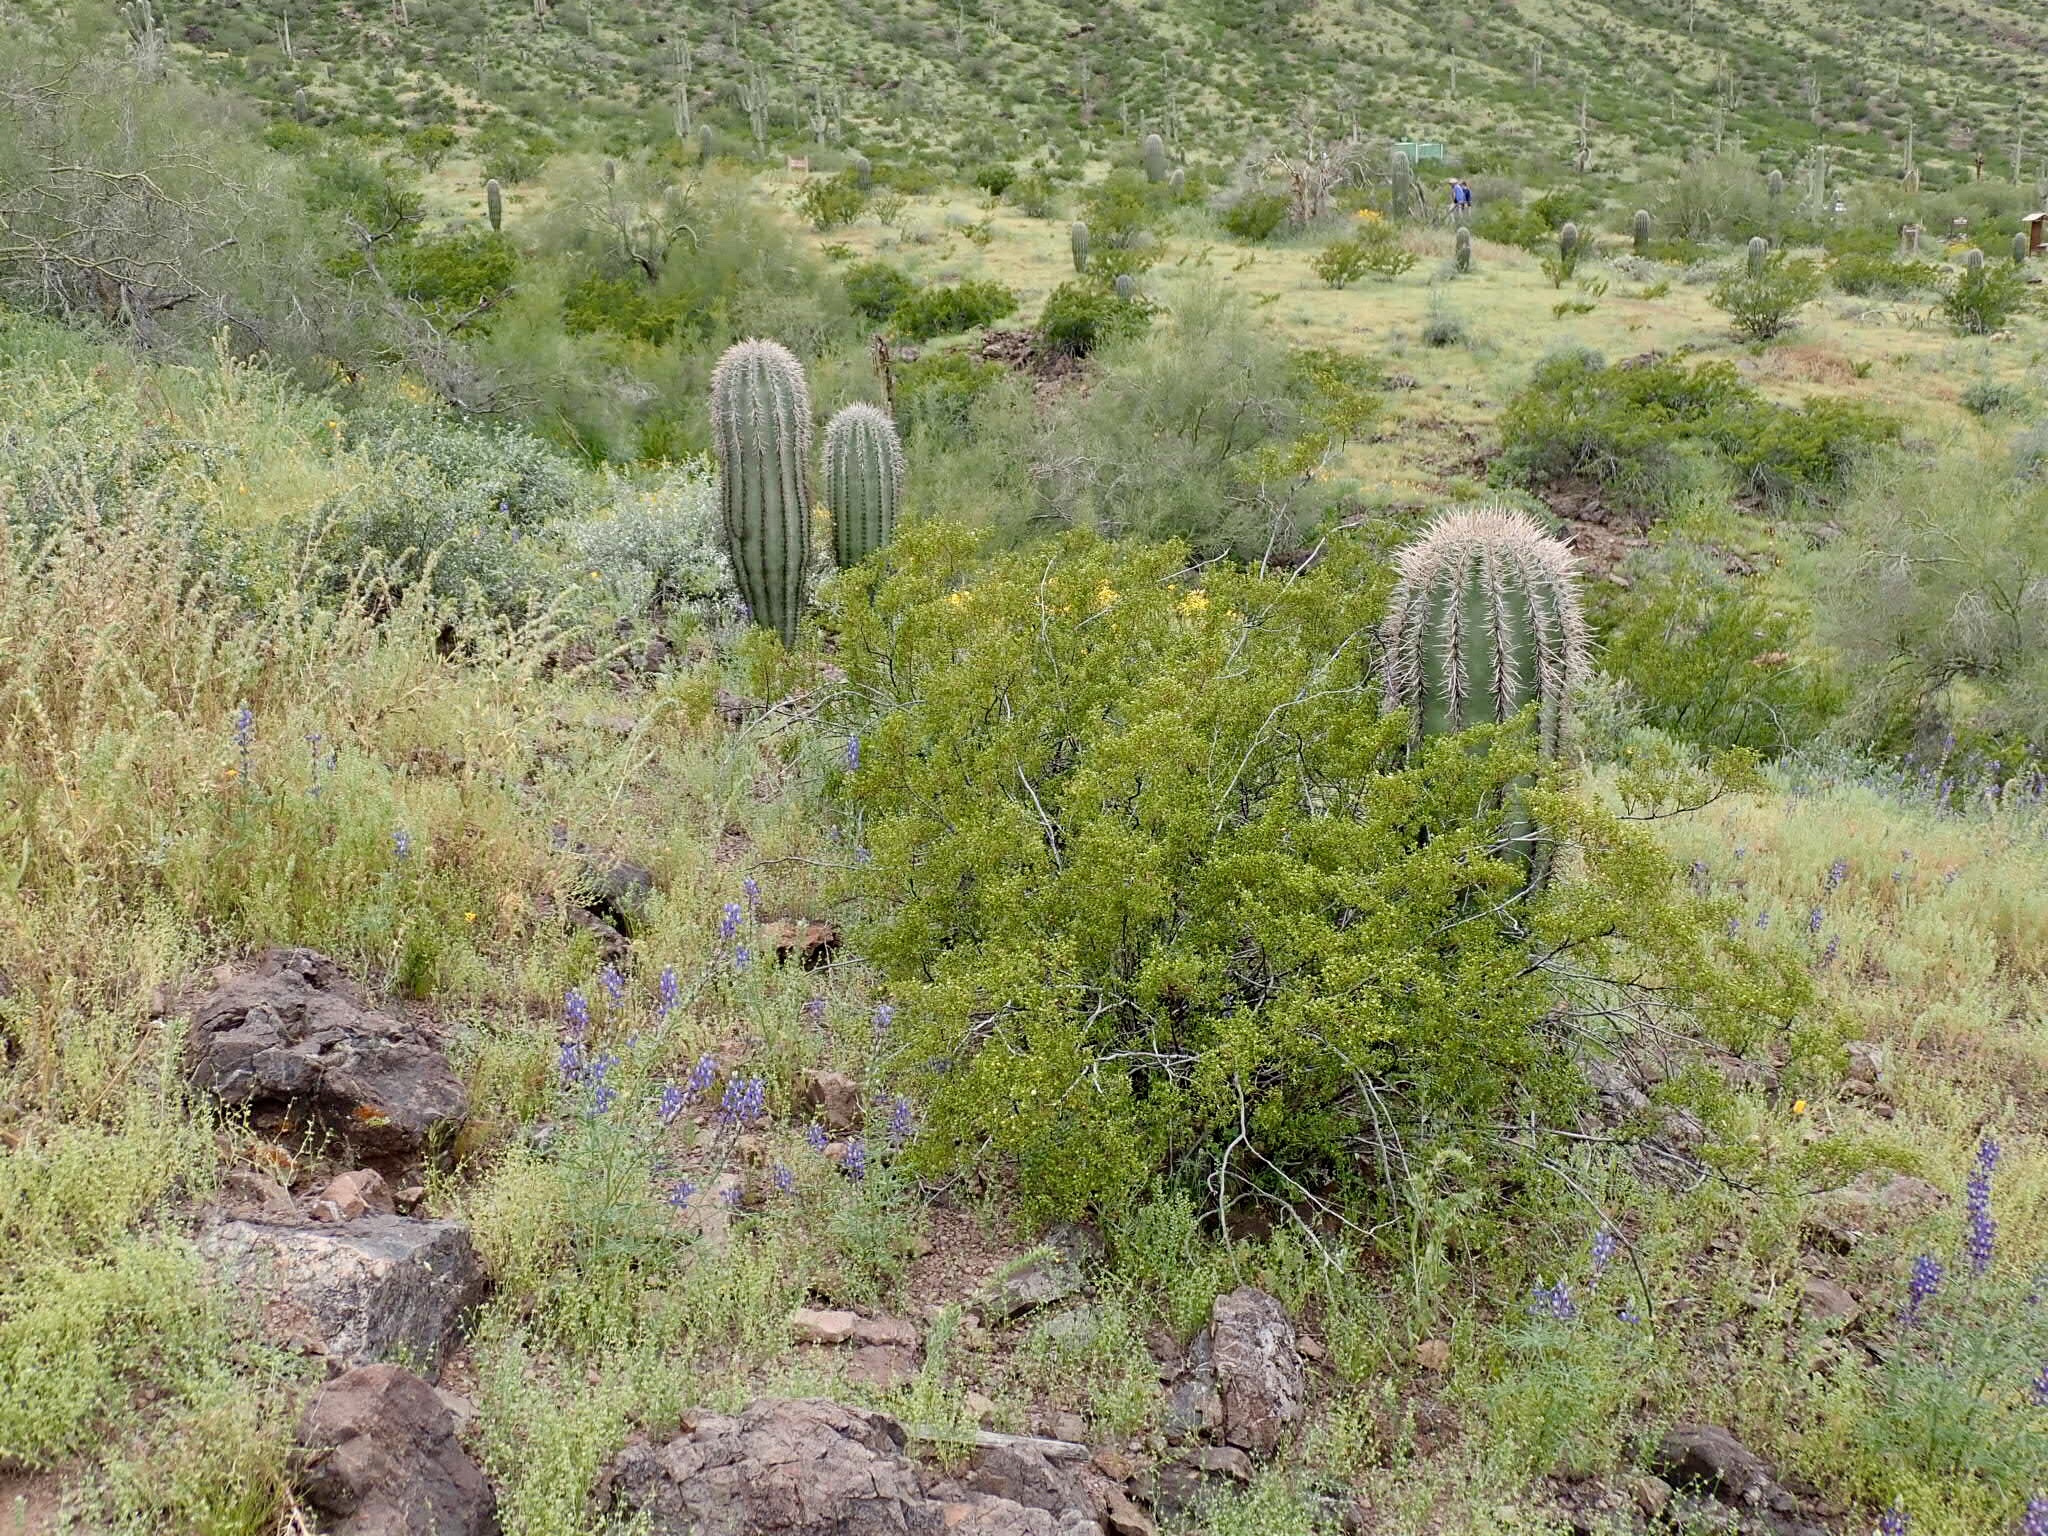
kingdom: Plantae
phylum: Tracheophyta
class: Magnoliopsida
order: Zygophyllales
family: Zygophyllaceae
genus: Larrea
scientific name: Larrea tridentata
